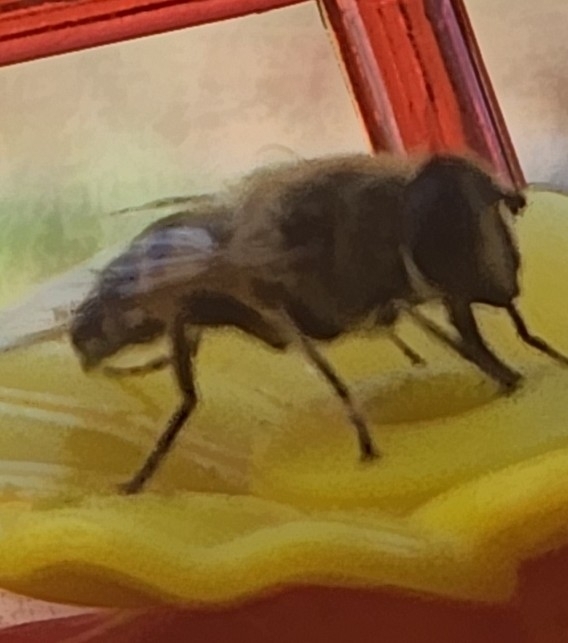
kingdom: Animalia
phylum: Arthropoda
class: Insecta
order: Diptera
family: Syrphidae
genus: Eristalis
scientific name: Eristalis tenax
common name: Drone fly
